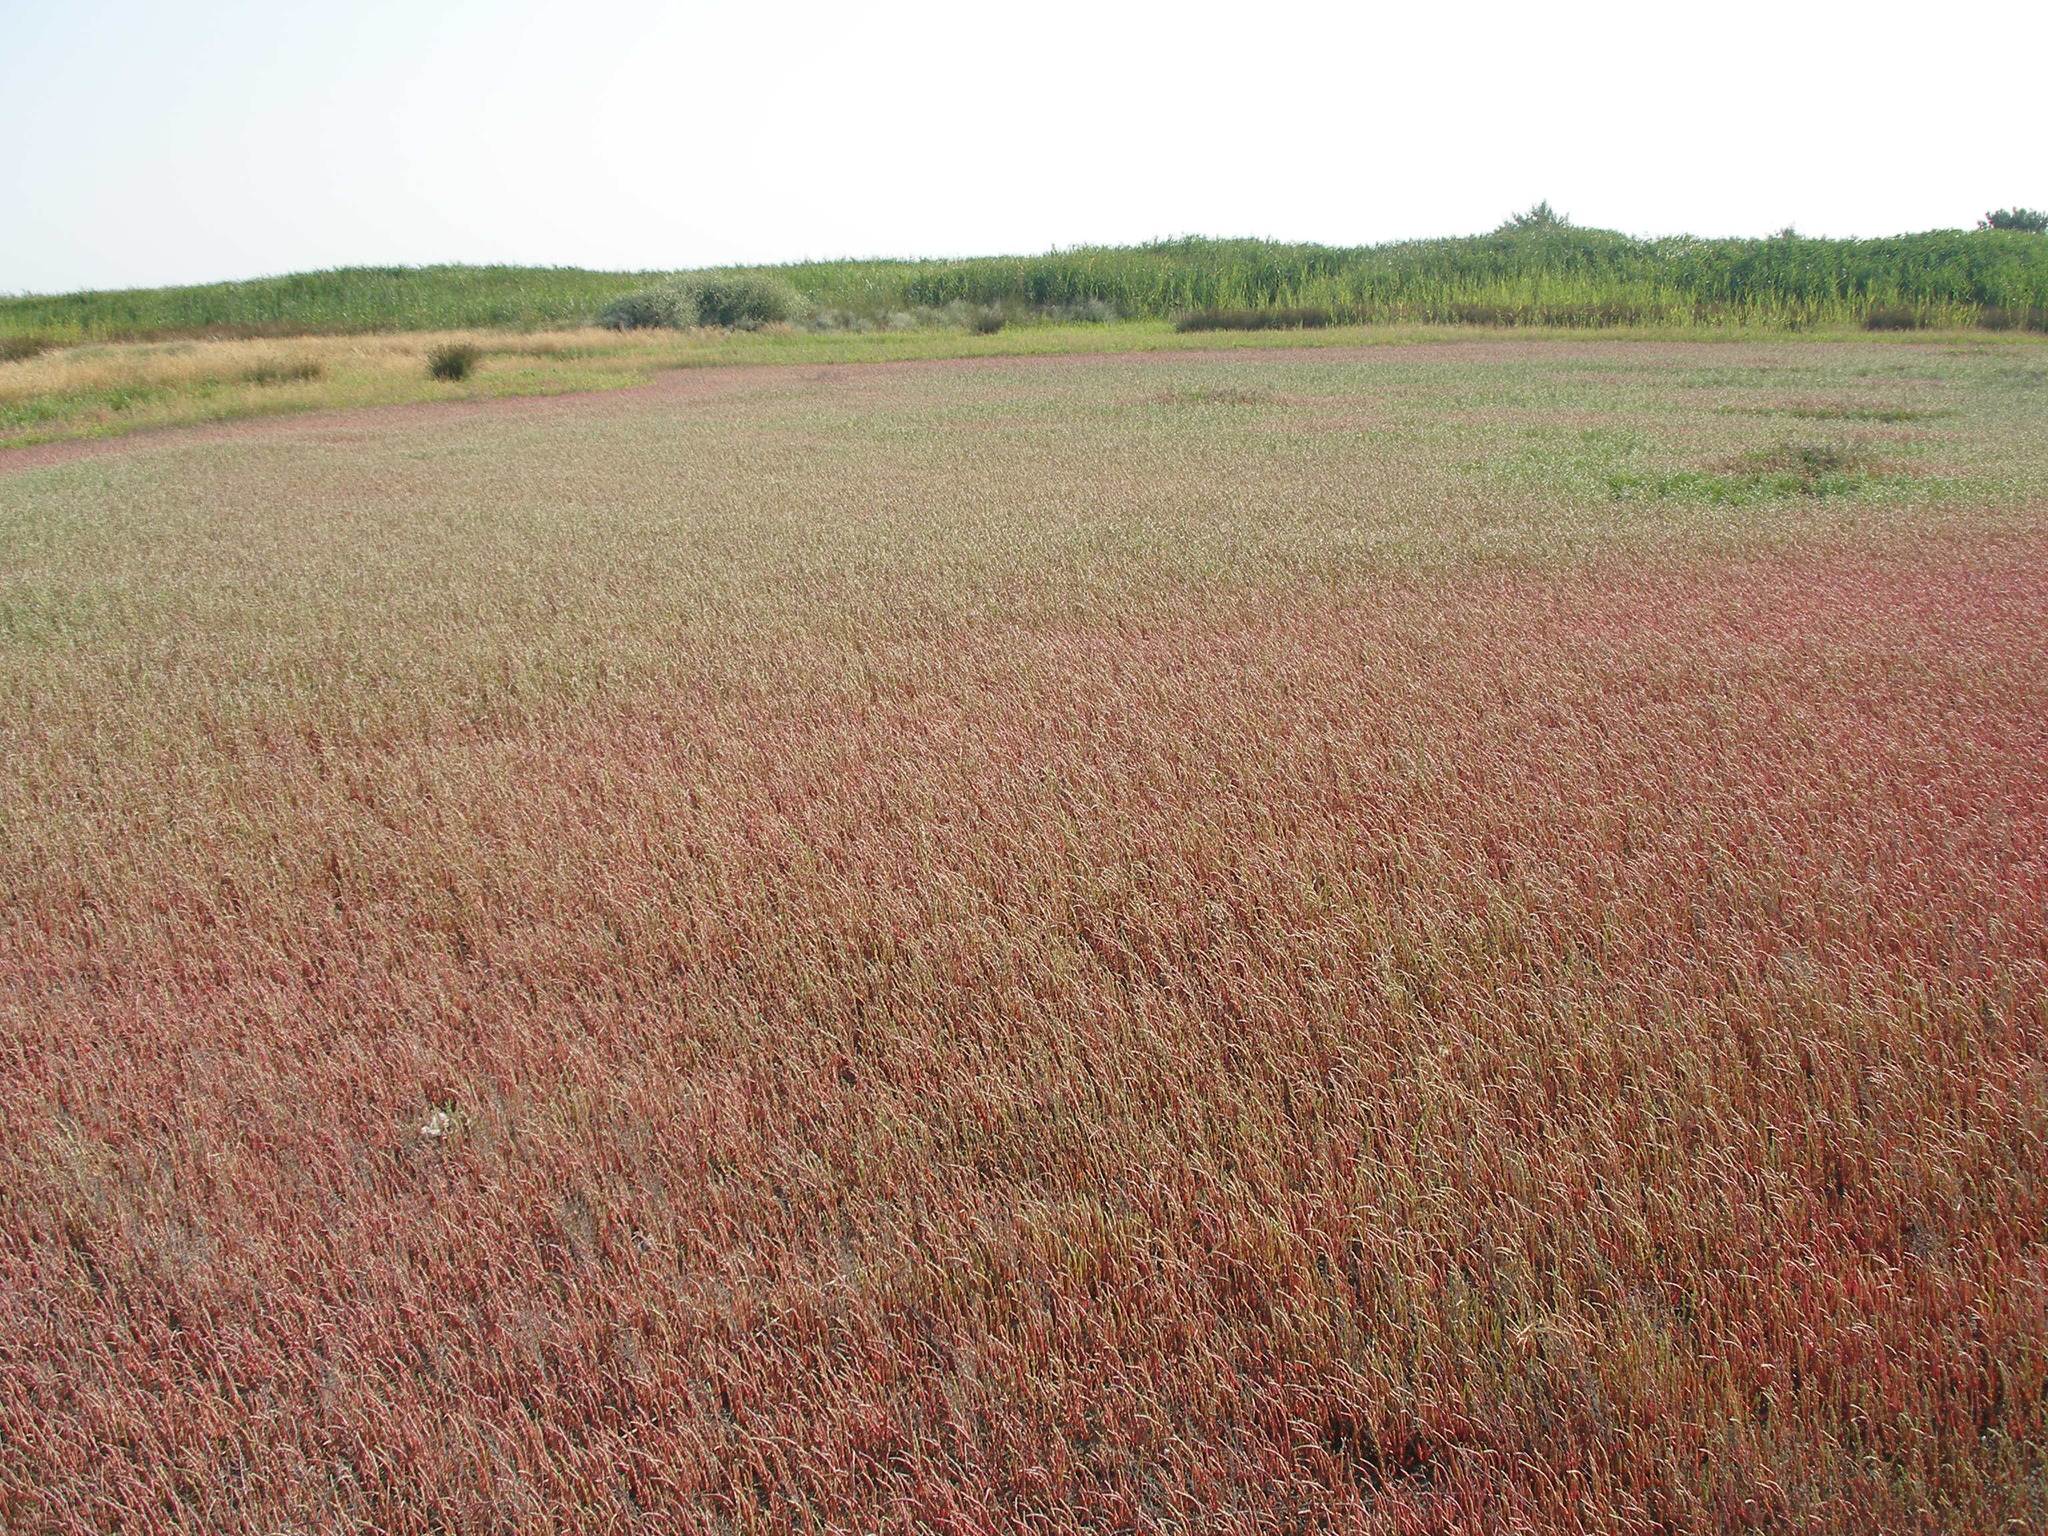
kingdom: Plantae
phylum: Tracheophyta
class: Magnoliopsida
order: Caryophyllales
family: Amaranthaceae
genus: Salicornia
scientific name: Salicornia perennans
